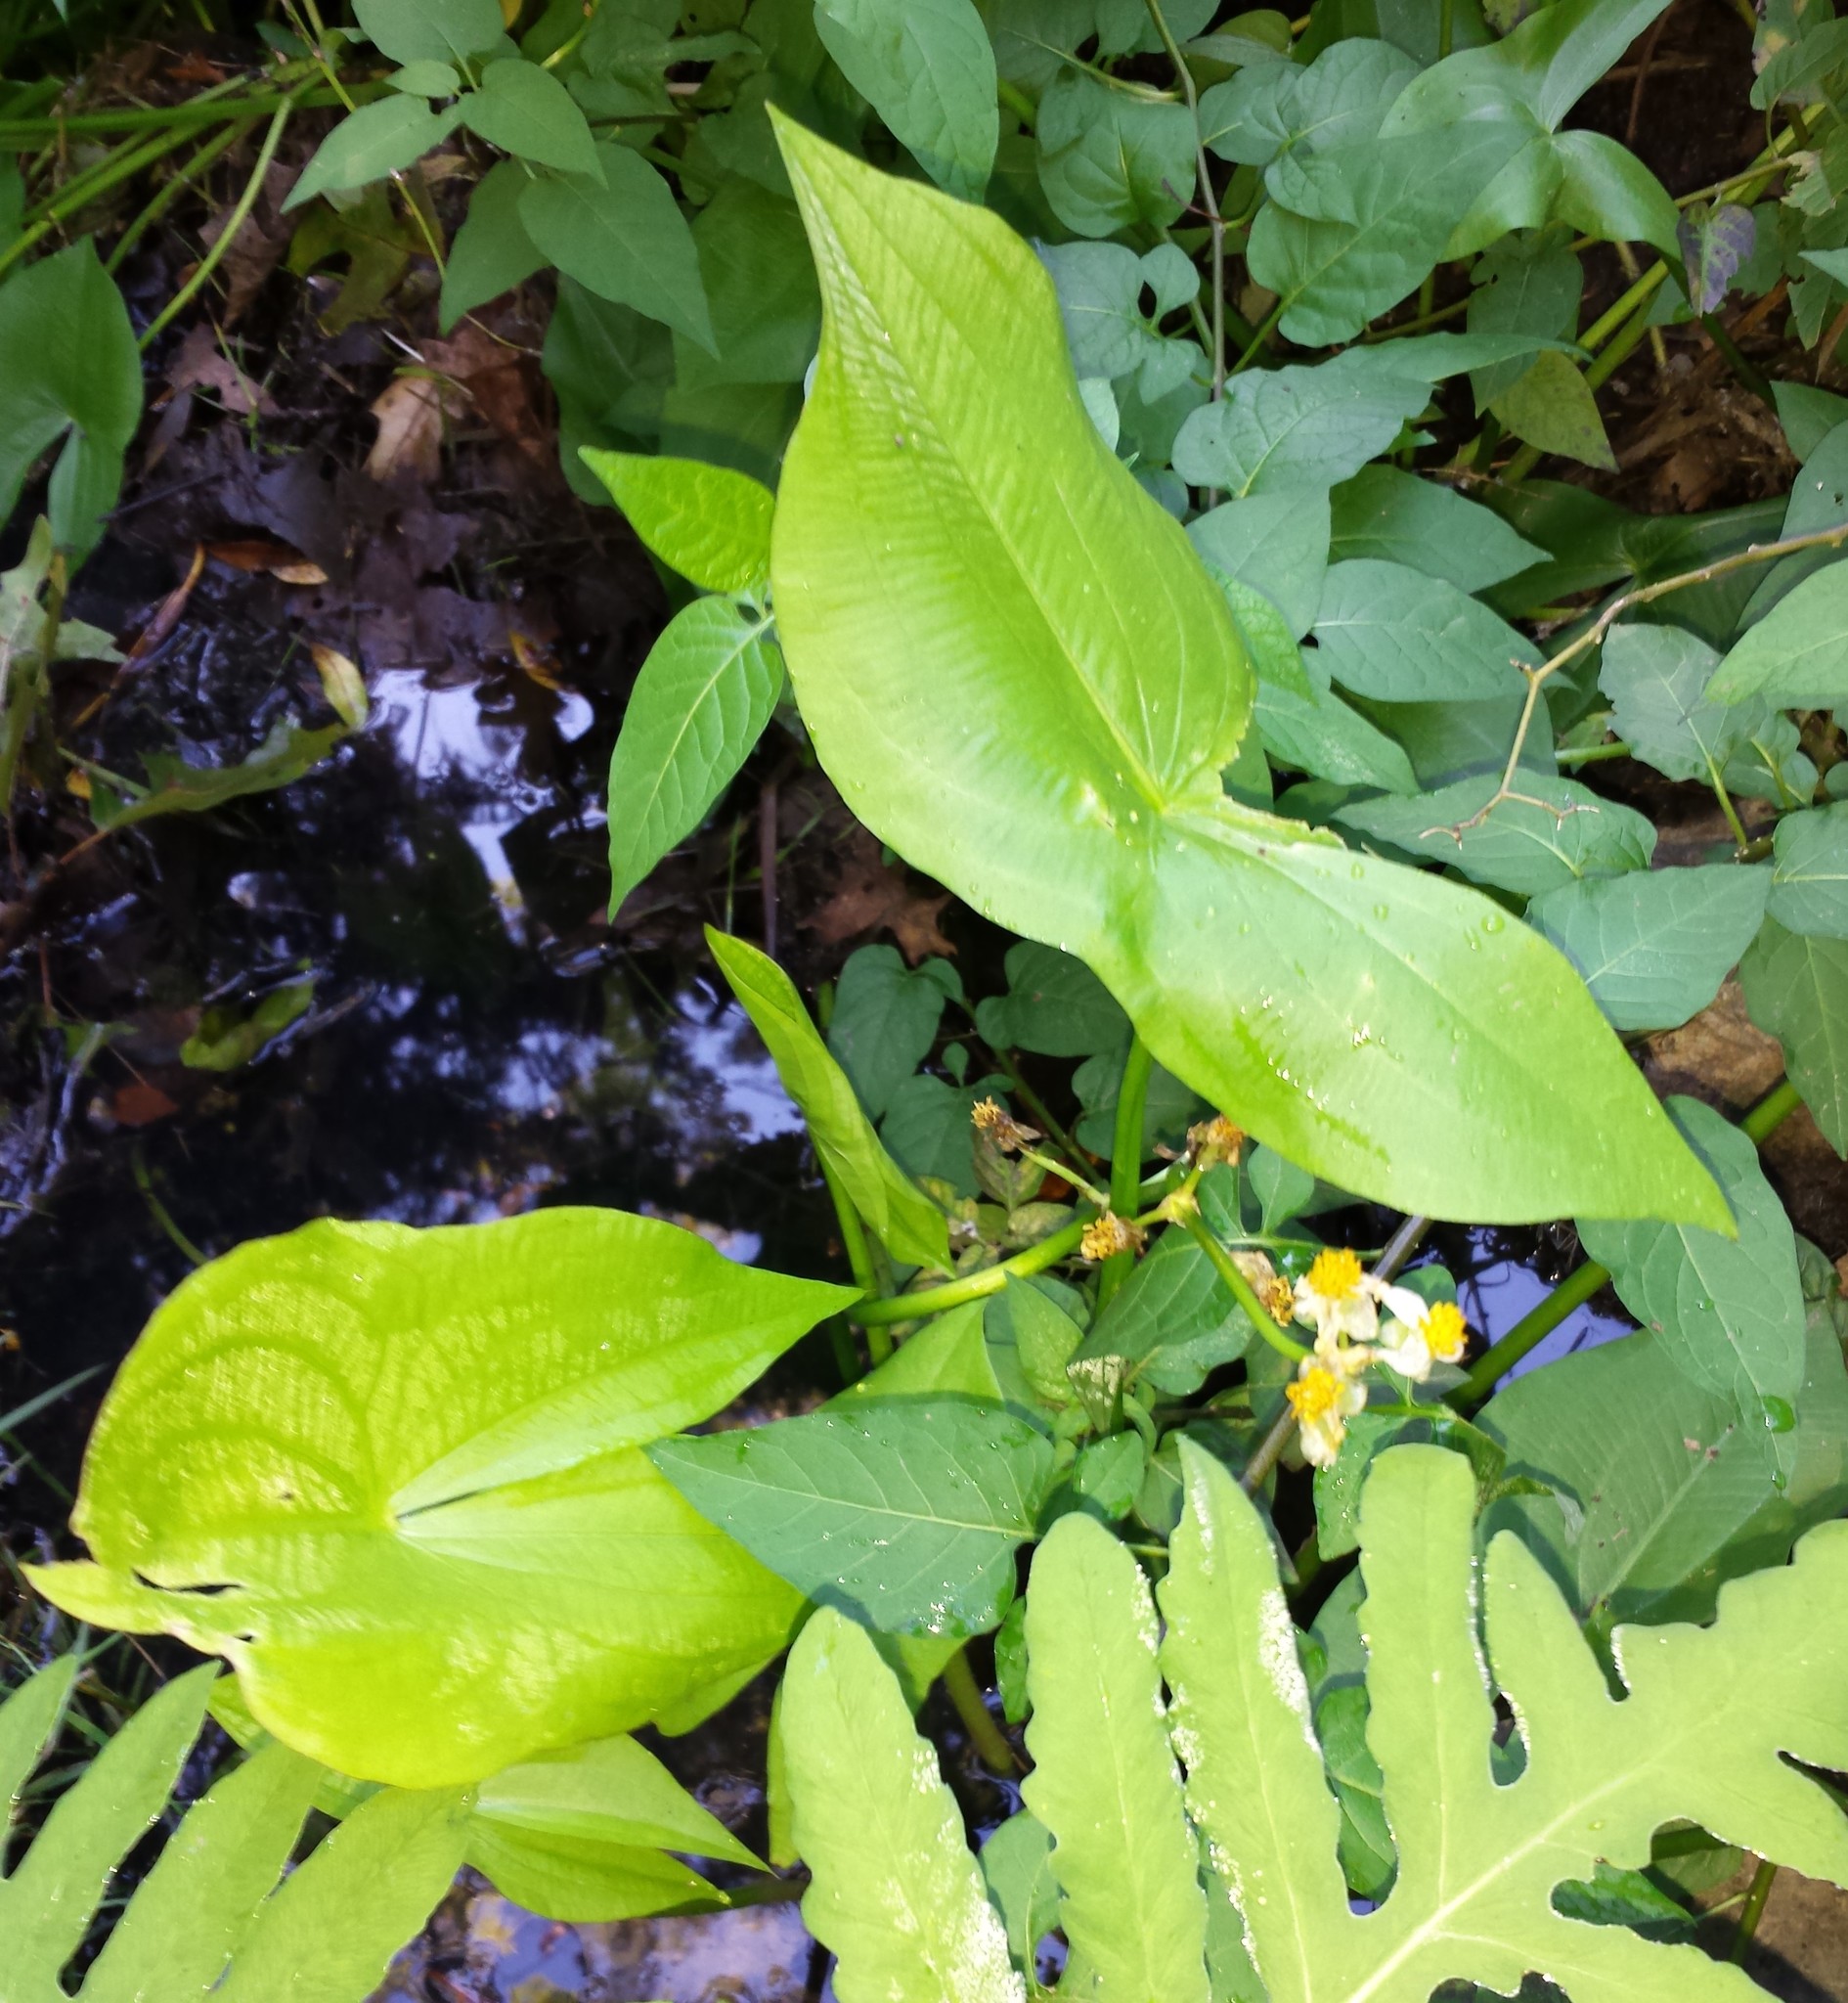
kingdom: Plantae
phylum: Tracheophyta
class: Liliopsida
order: Alismatales
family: Alismataceae
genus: Sagittaria
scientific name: Sagittaria latifolia
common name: Duck-potato
